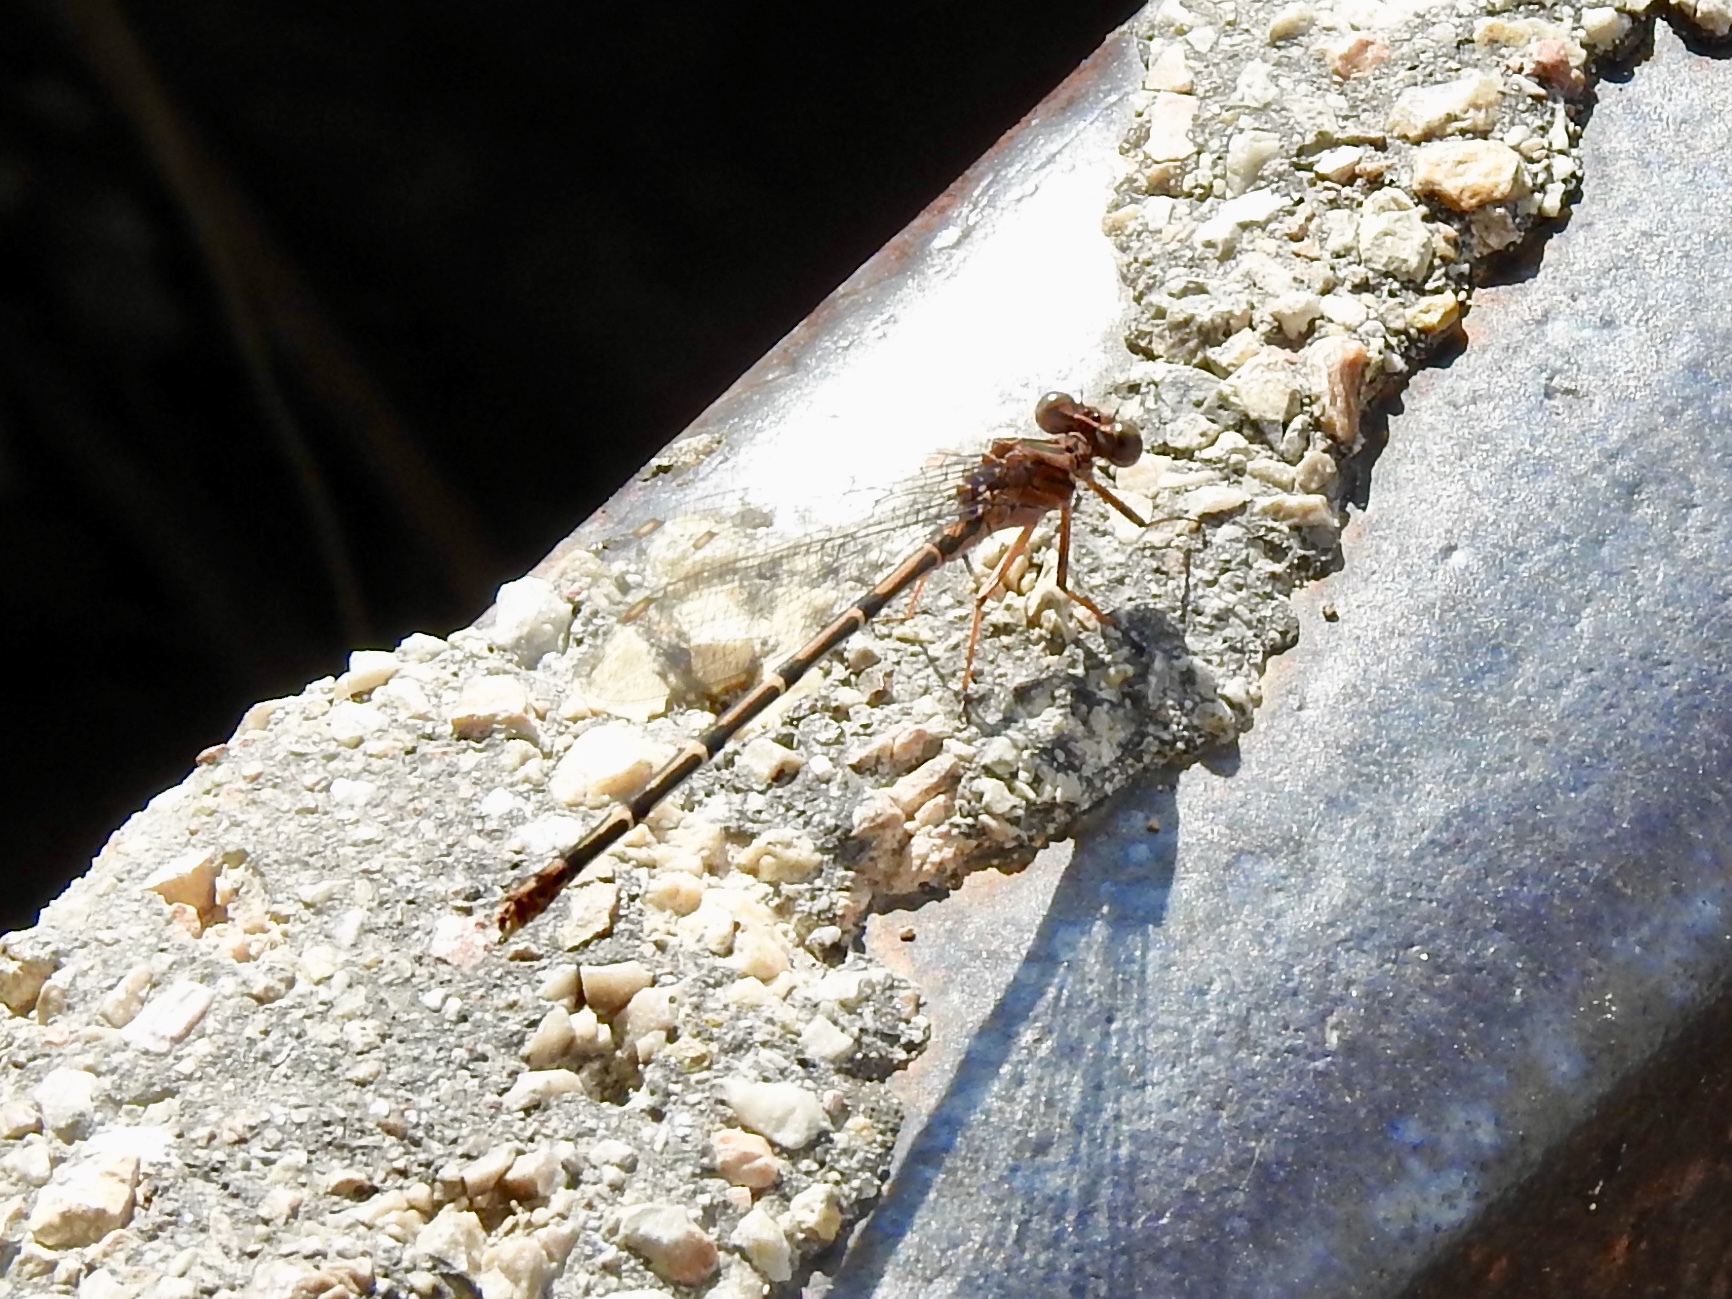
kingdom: Animalia
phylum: Arthropoda
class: Insecta
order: Odonata
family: Coenagrionidae
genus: Argia
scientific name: Argia lugens
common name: Sooty dancer
